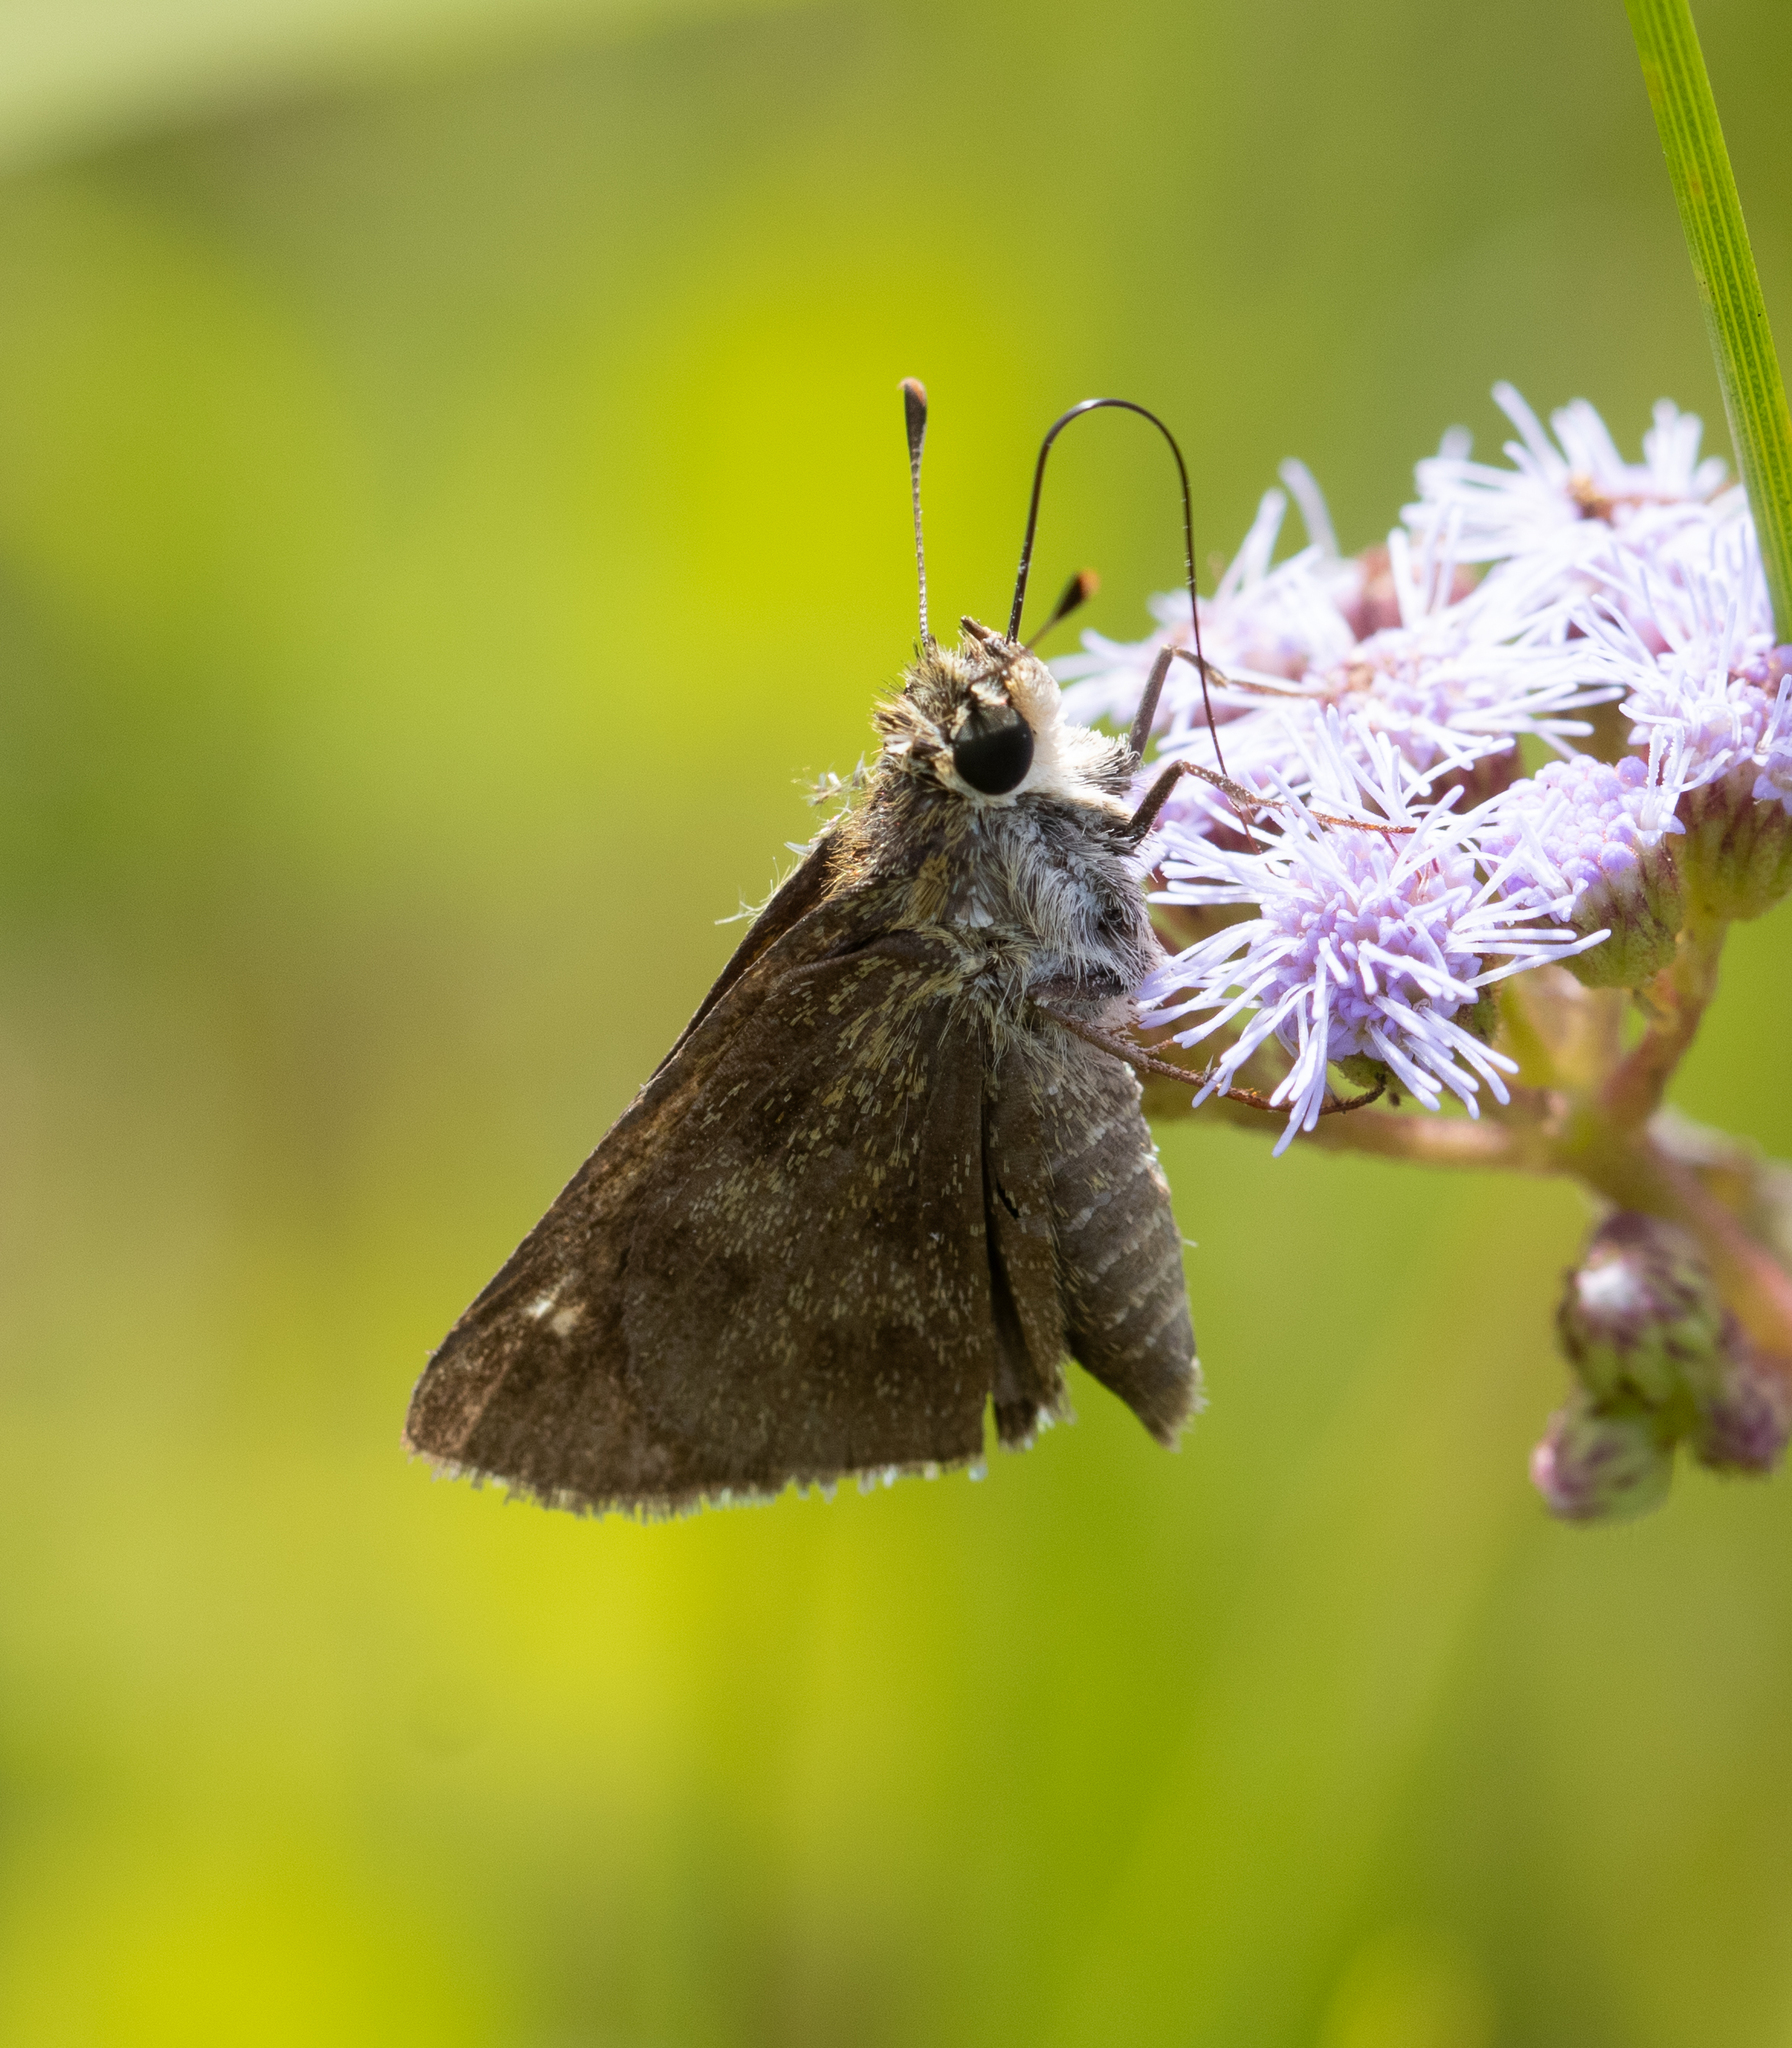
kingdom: Animalia
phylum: Arthropoda
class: Insecta
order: Lepidoptera
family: Hesperiidae
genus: Polites
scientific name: Polites vibex
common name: Whirlabout
